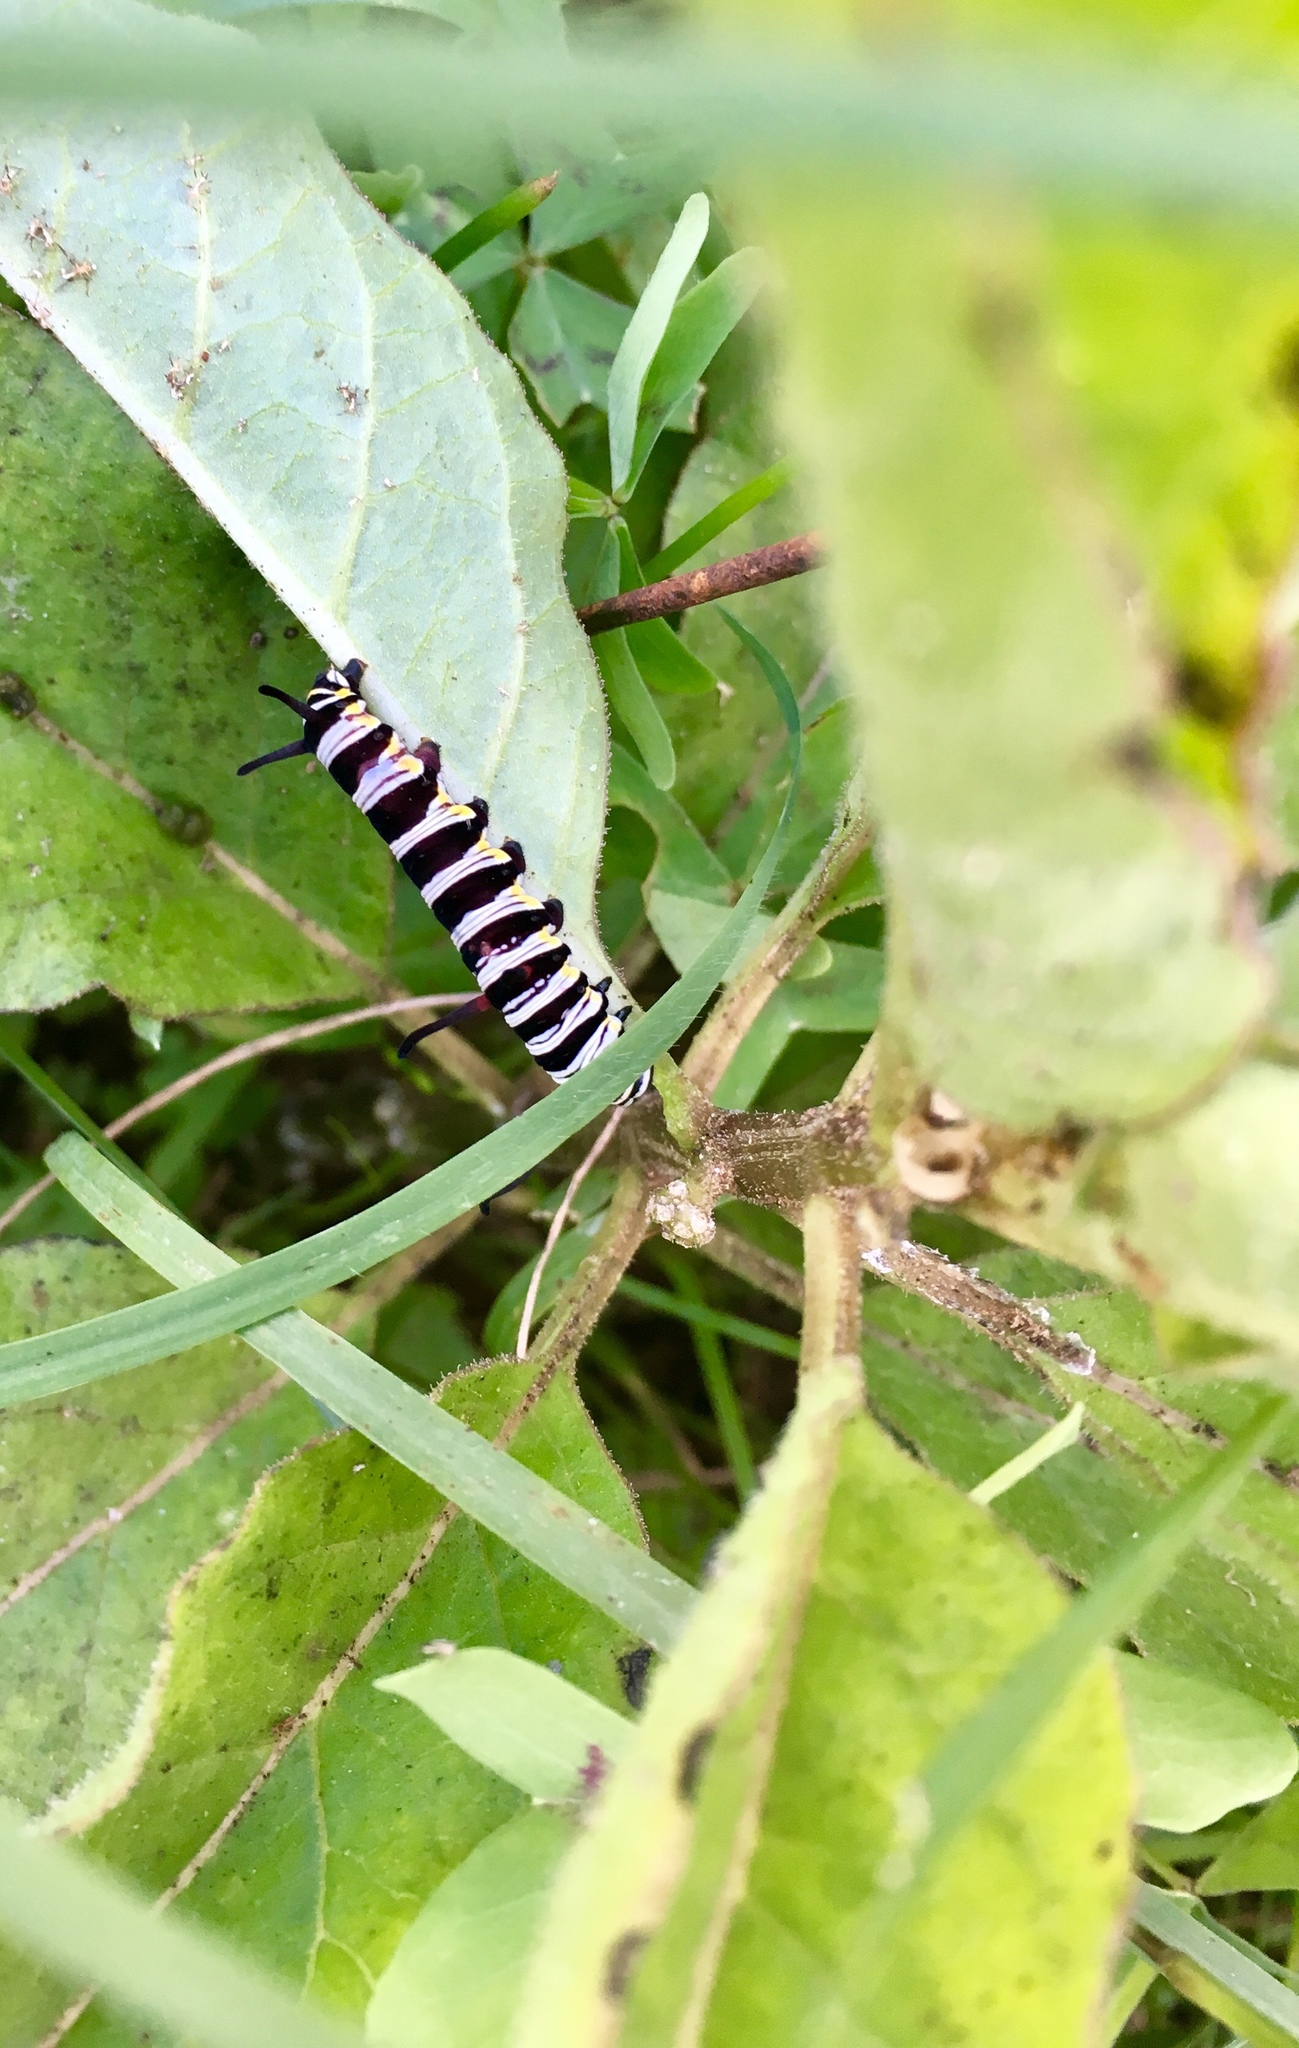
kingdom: Animalia
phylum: Arthropoda
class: Insecta
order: Lepidoptera
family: Nymphalidae
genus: Danaus
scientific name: Danaus gilippus
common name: Queen
